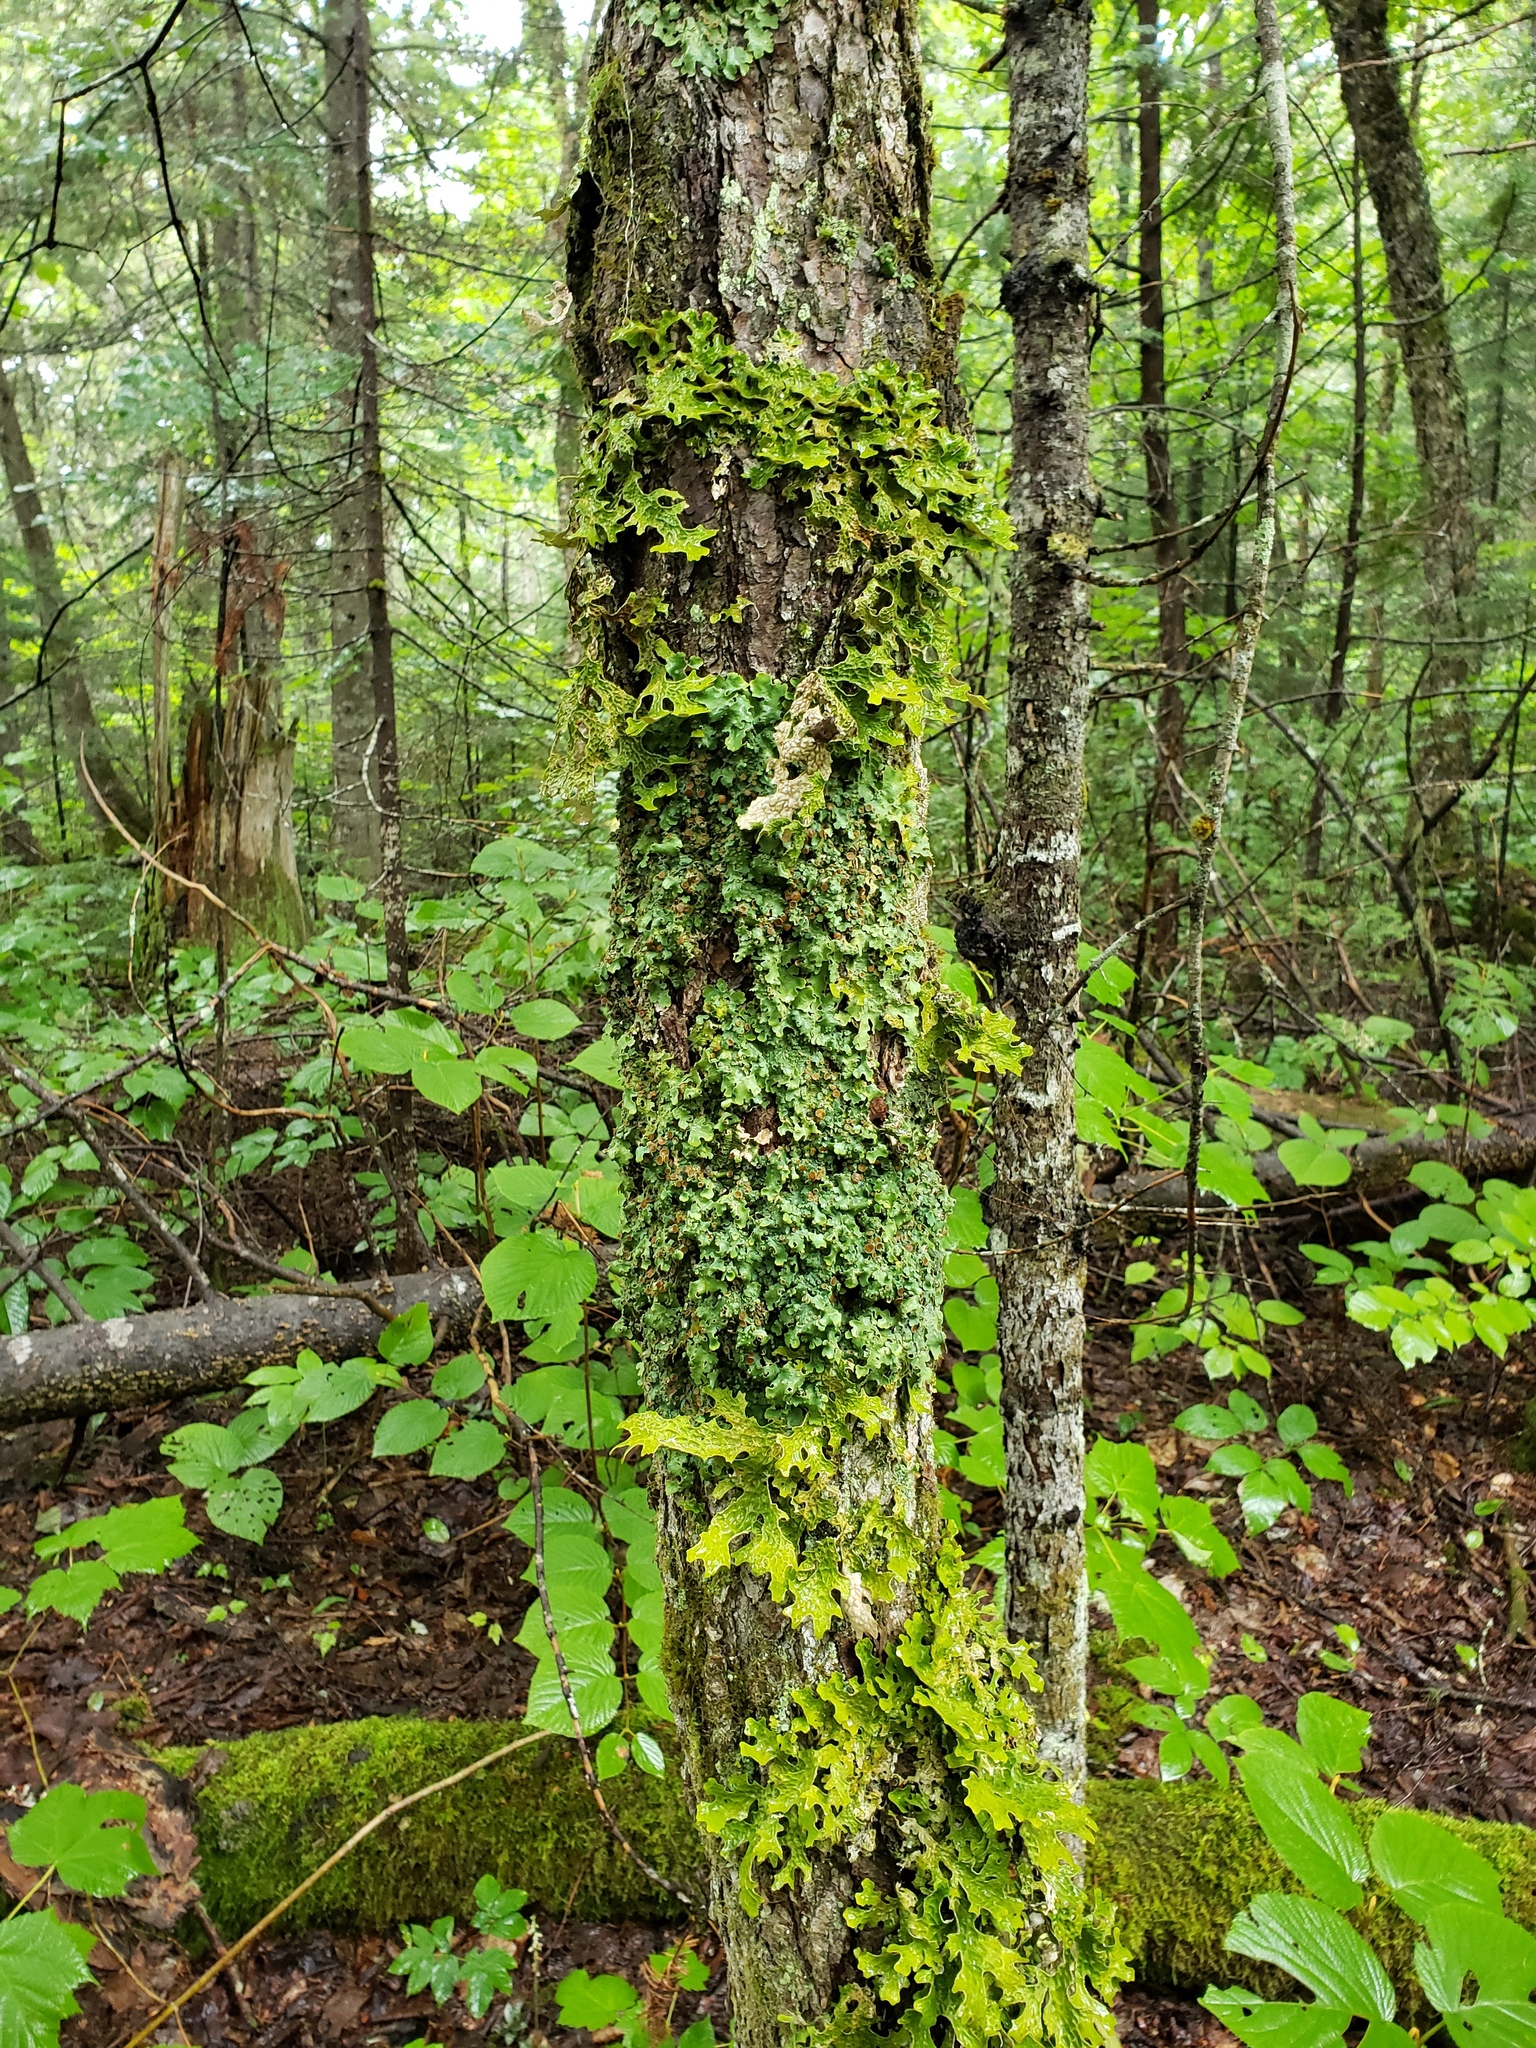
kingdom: Fungi
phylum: Ascomycota
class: Lecanoromycetes
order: Peltigerales
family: Lobariaceae
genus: Ricasolia
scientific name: Ricasolia quercizans
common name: Smooth lungwort
